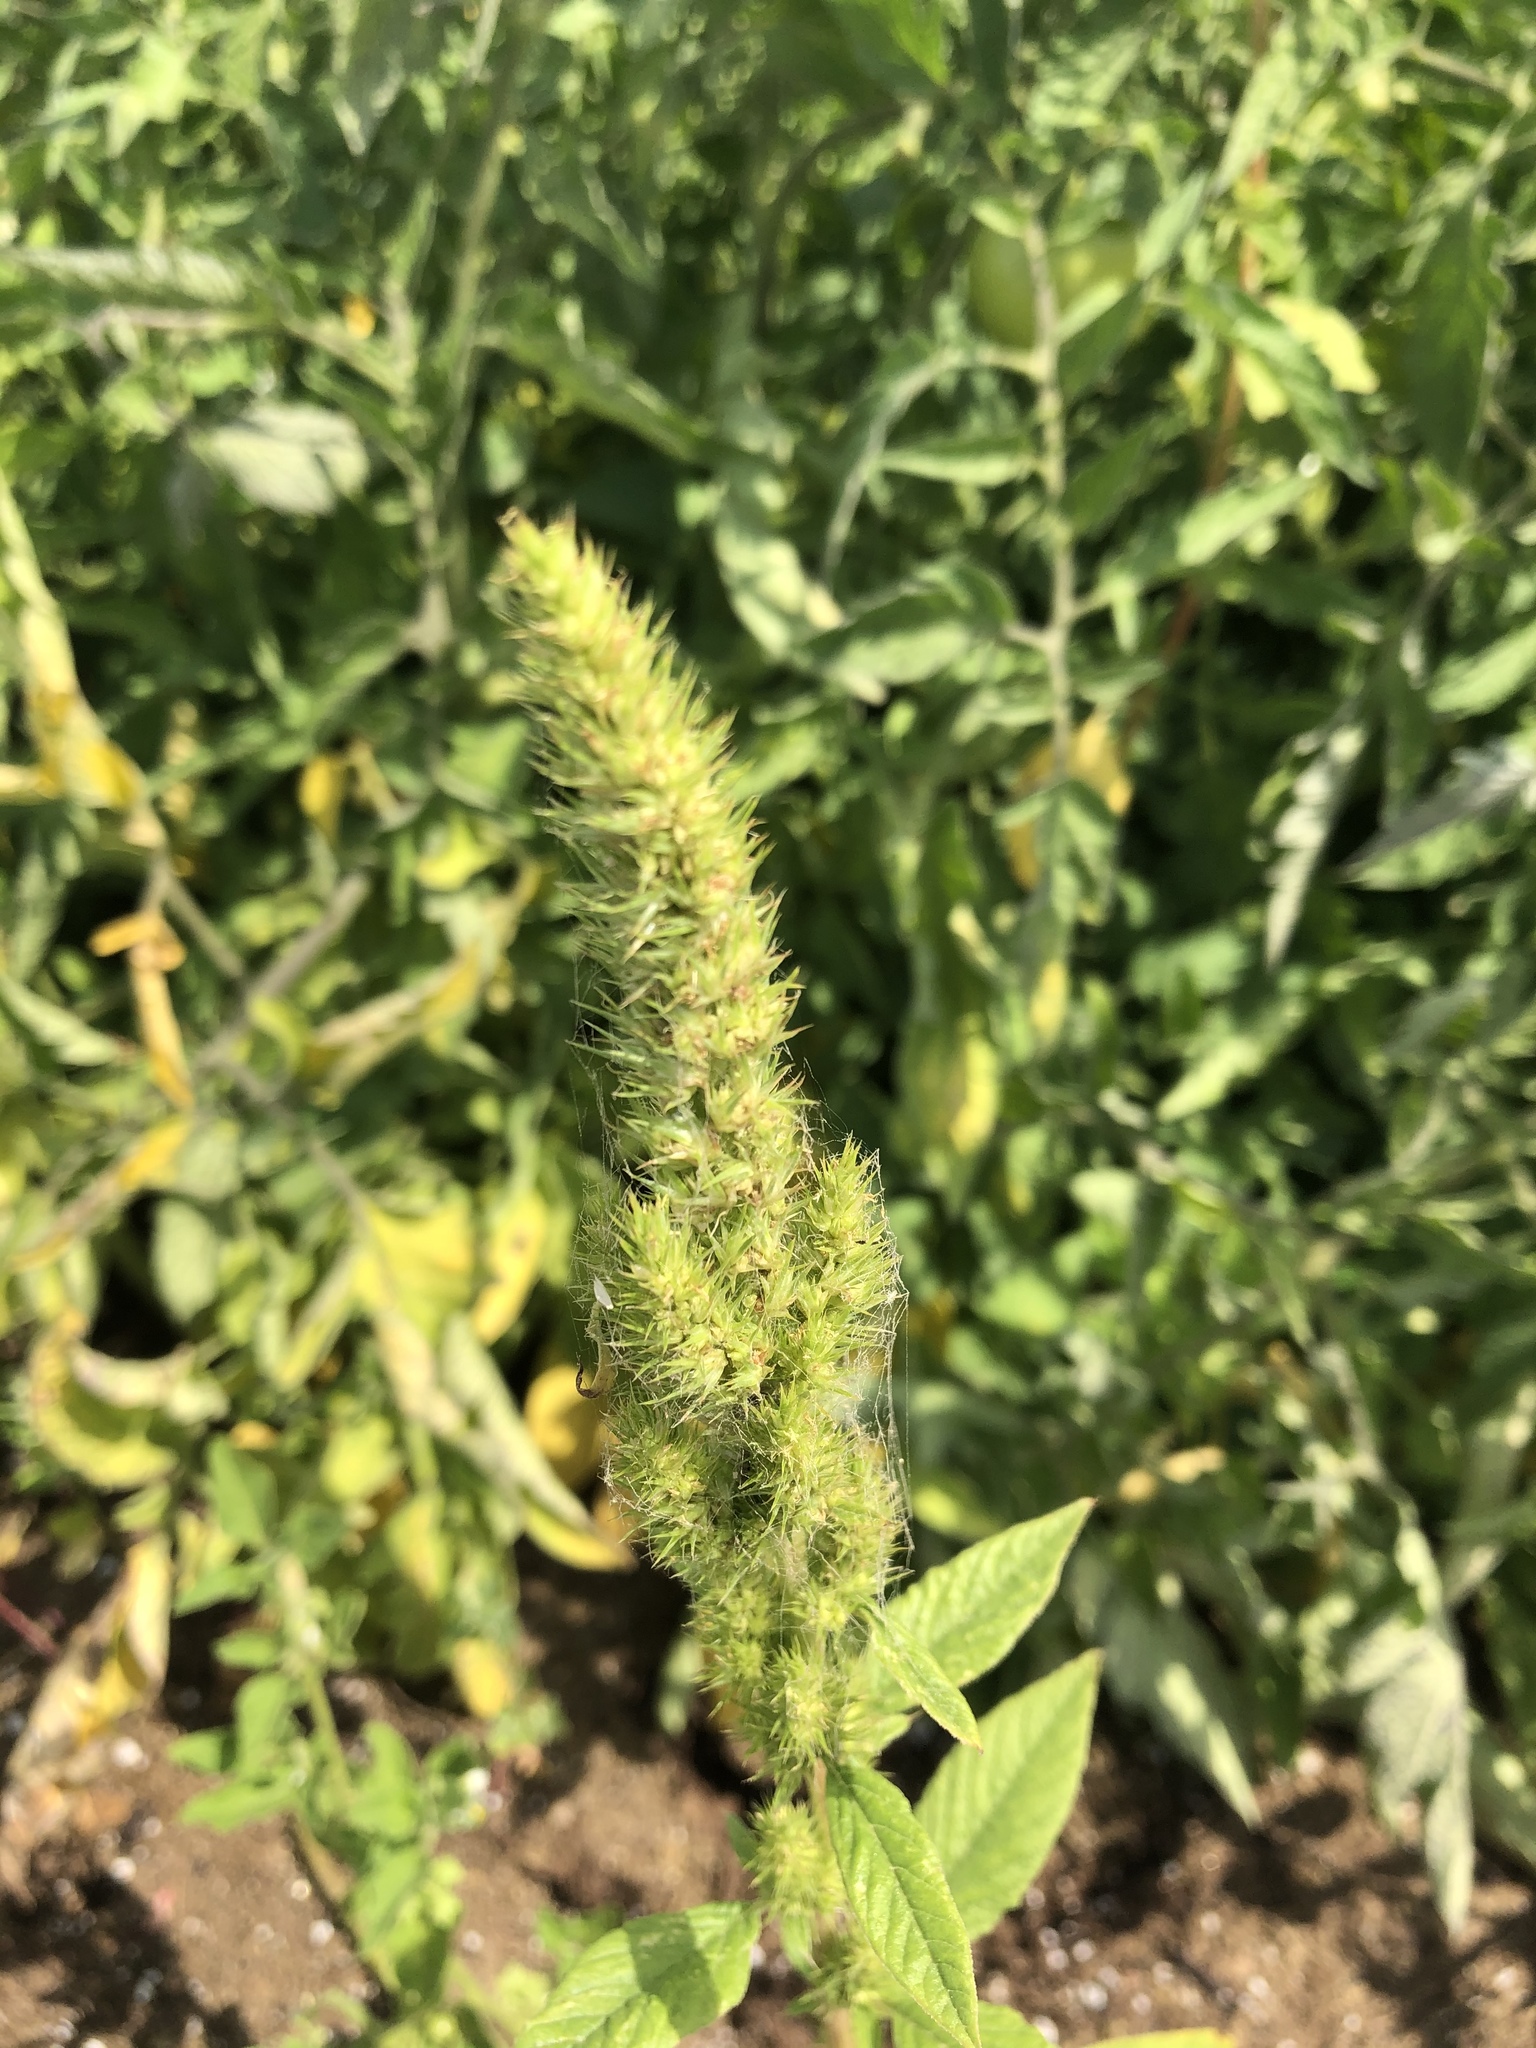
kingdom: Plantae
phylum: Tracheophyta
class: Magnoliopsida
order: Caryophyllales
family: Amaranthaceae
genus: Amaranthus
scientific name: Amaranthus retroflexus
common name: Redroot amaranth
